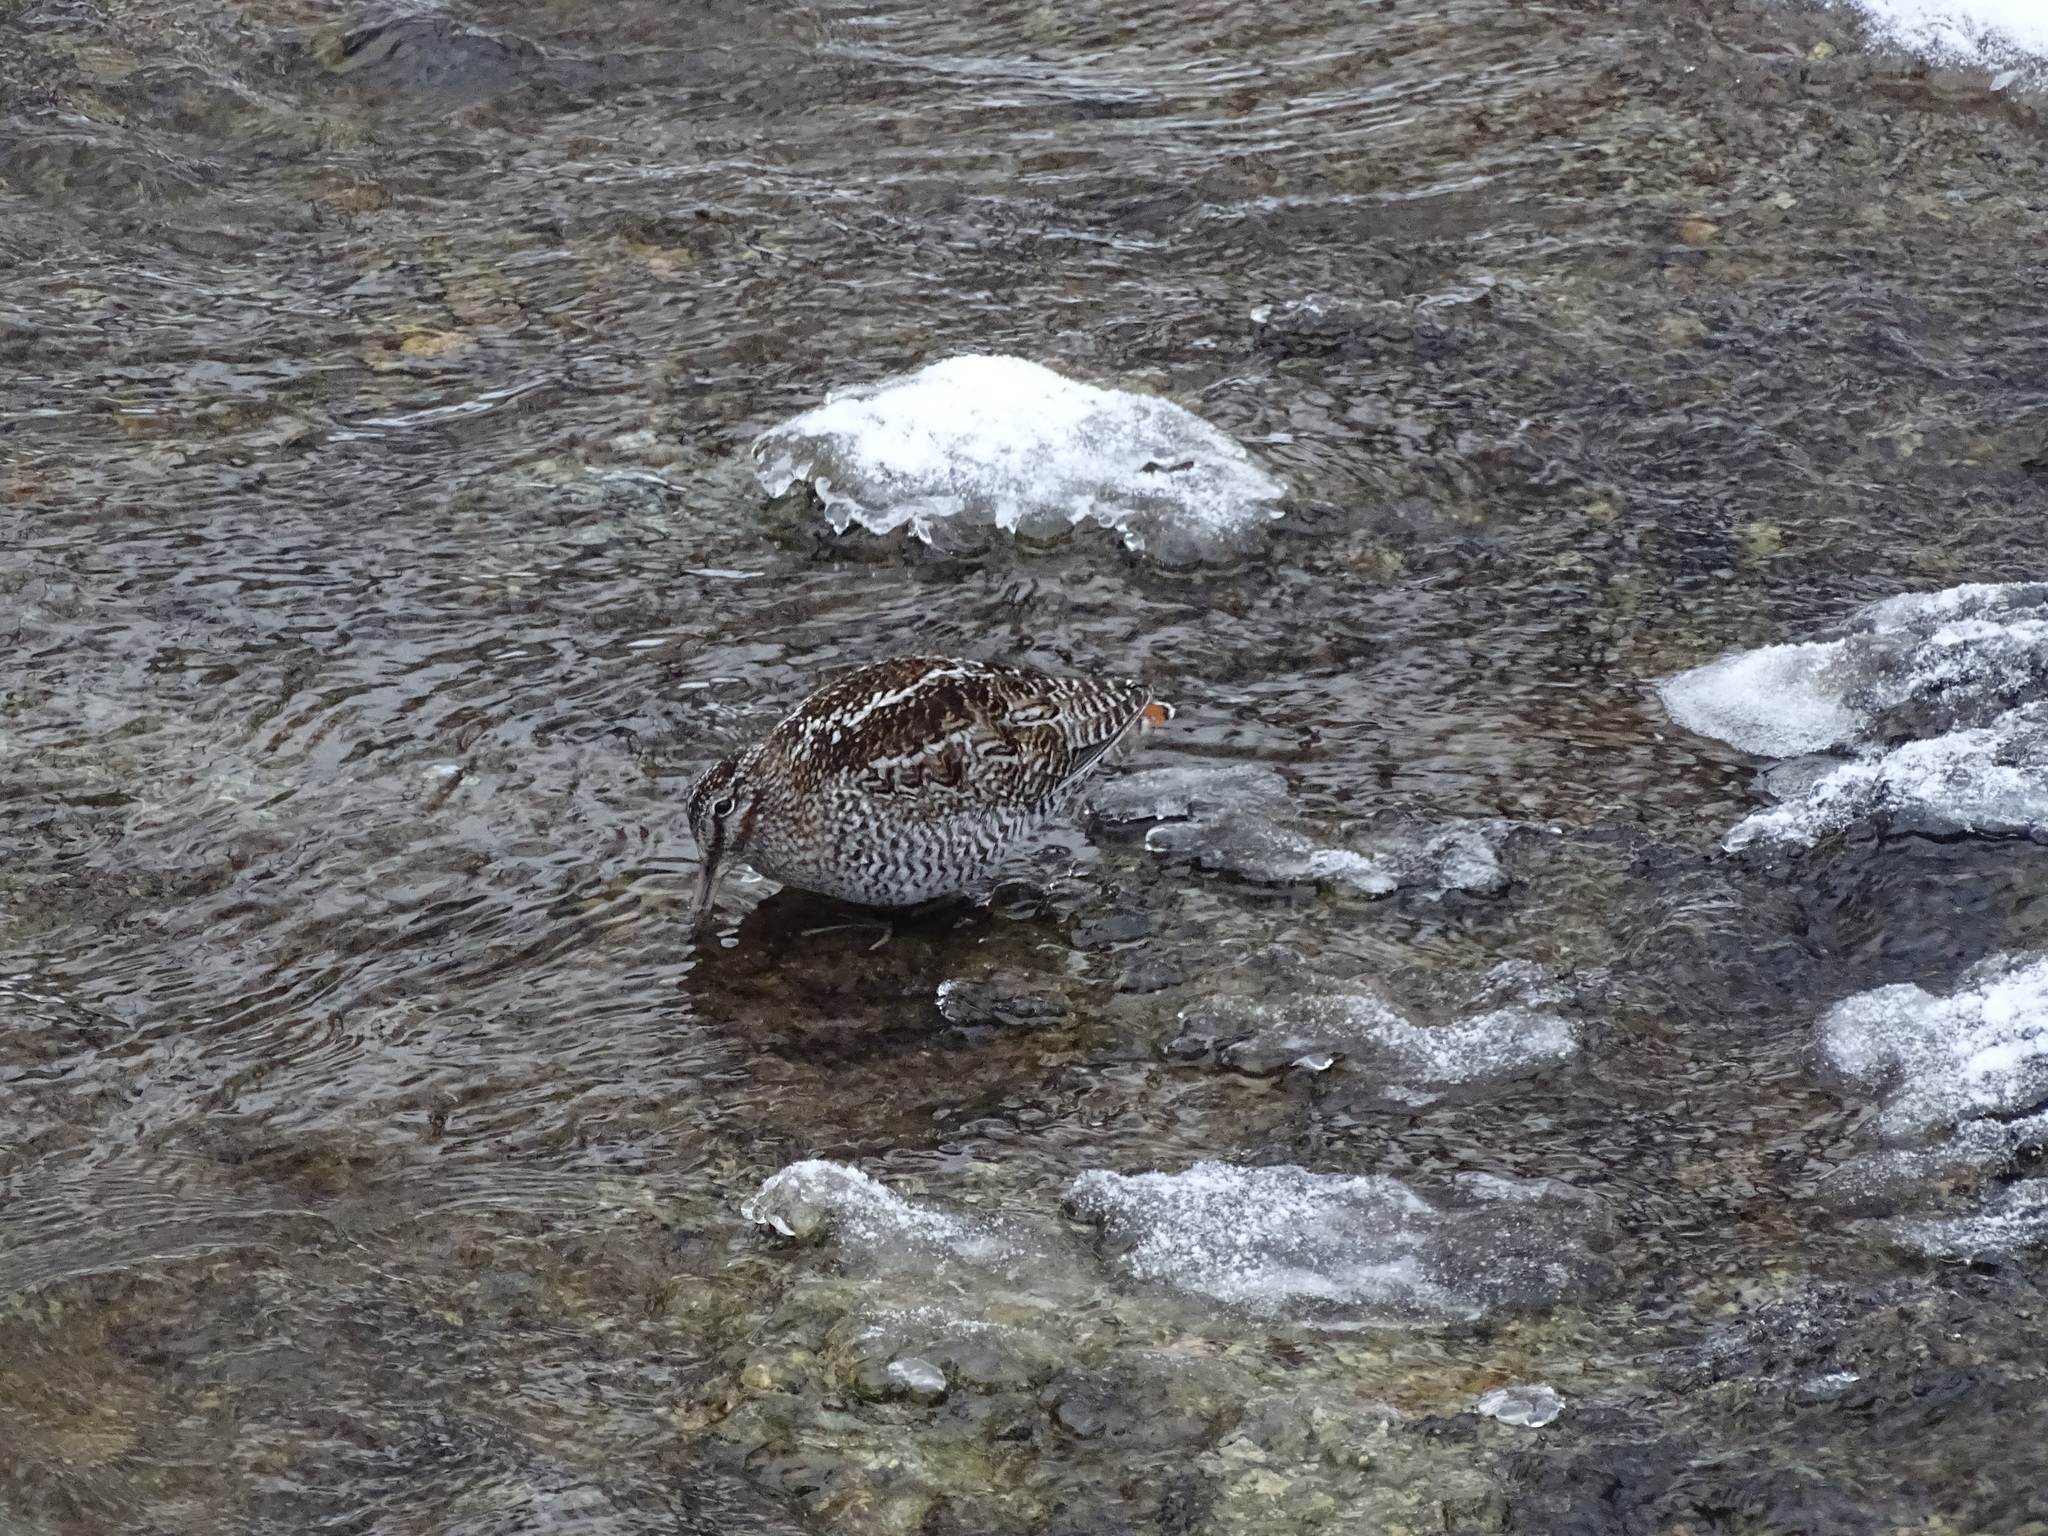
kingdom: Animalia
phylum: Chordata
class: Aves
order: Charadriiformes
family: Scolopacidae
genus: Gallinago
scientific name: Gallinago solitaria
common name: Solitary snipe
